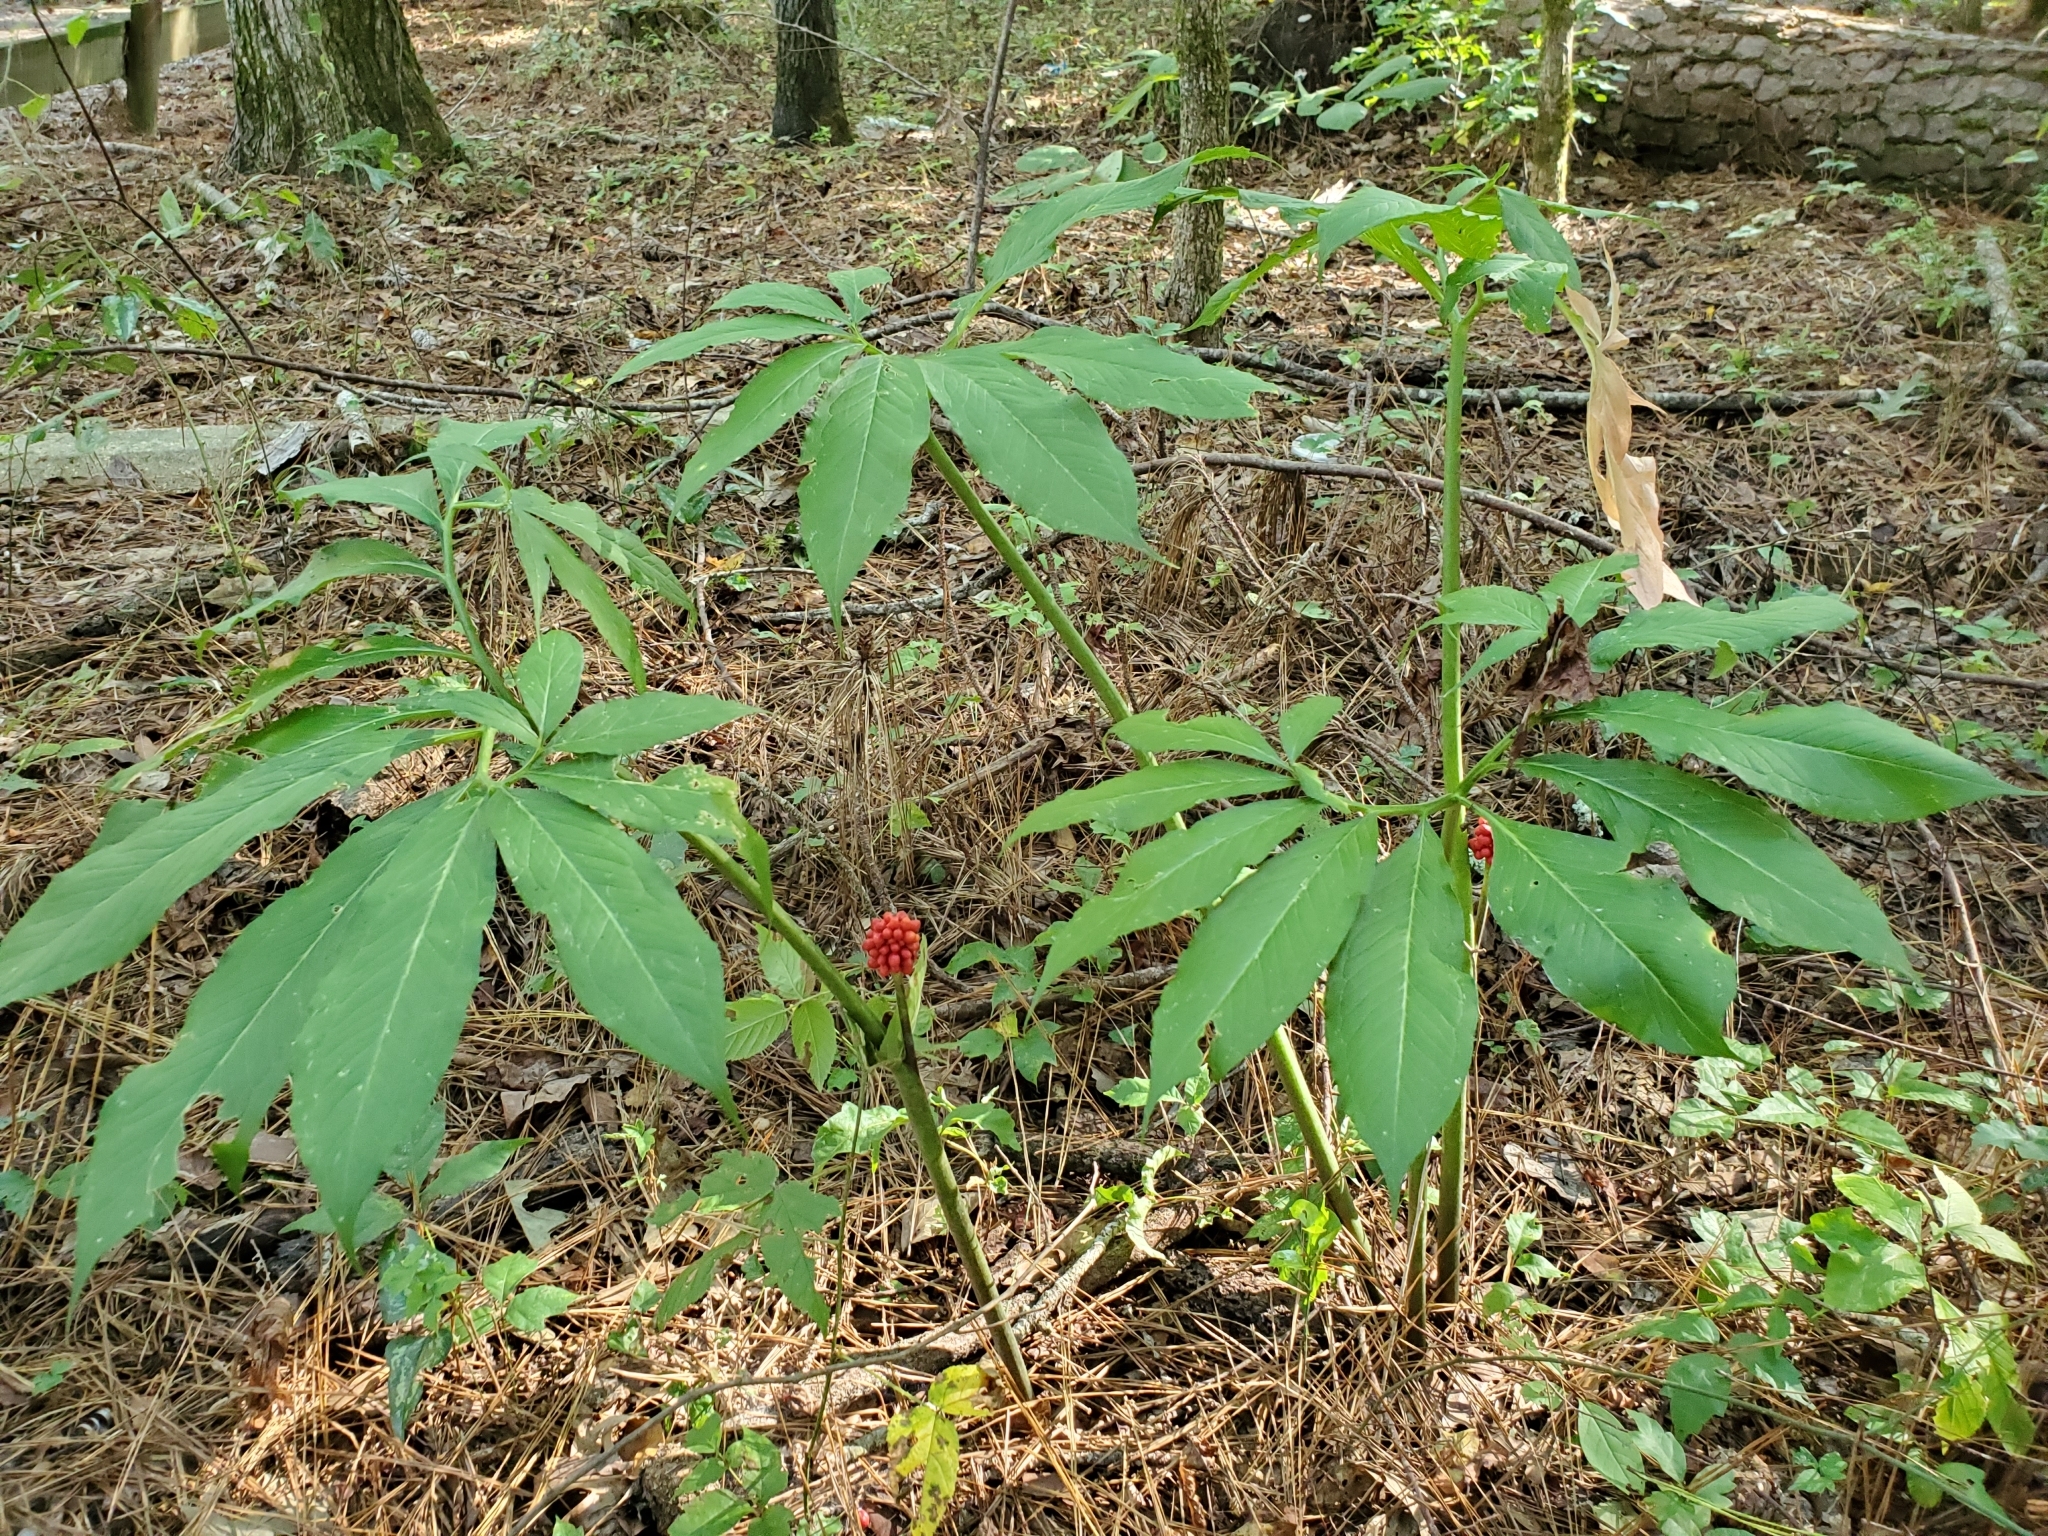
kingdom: Plantae
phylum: Tracheophyta
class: Liliopsida
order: Alismatales
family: Araceae
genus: Arisaema
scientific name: Arisaema dracontium
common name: Dragon-arum
